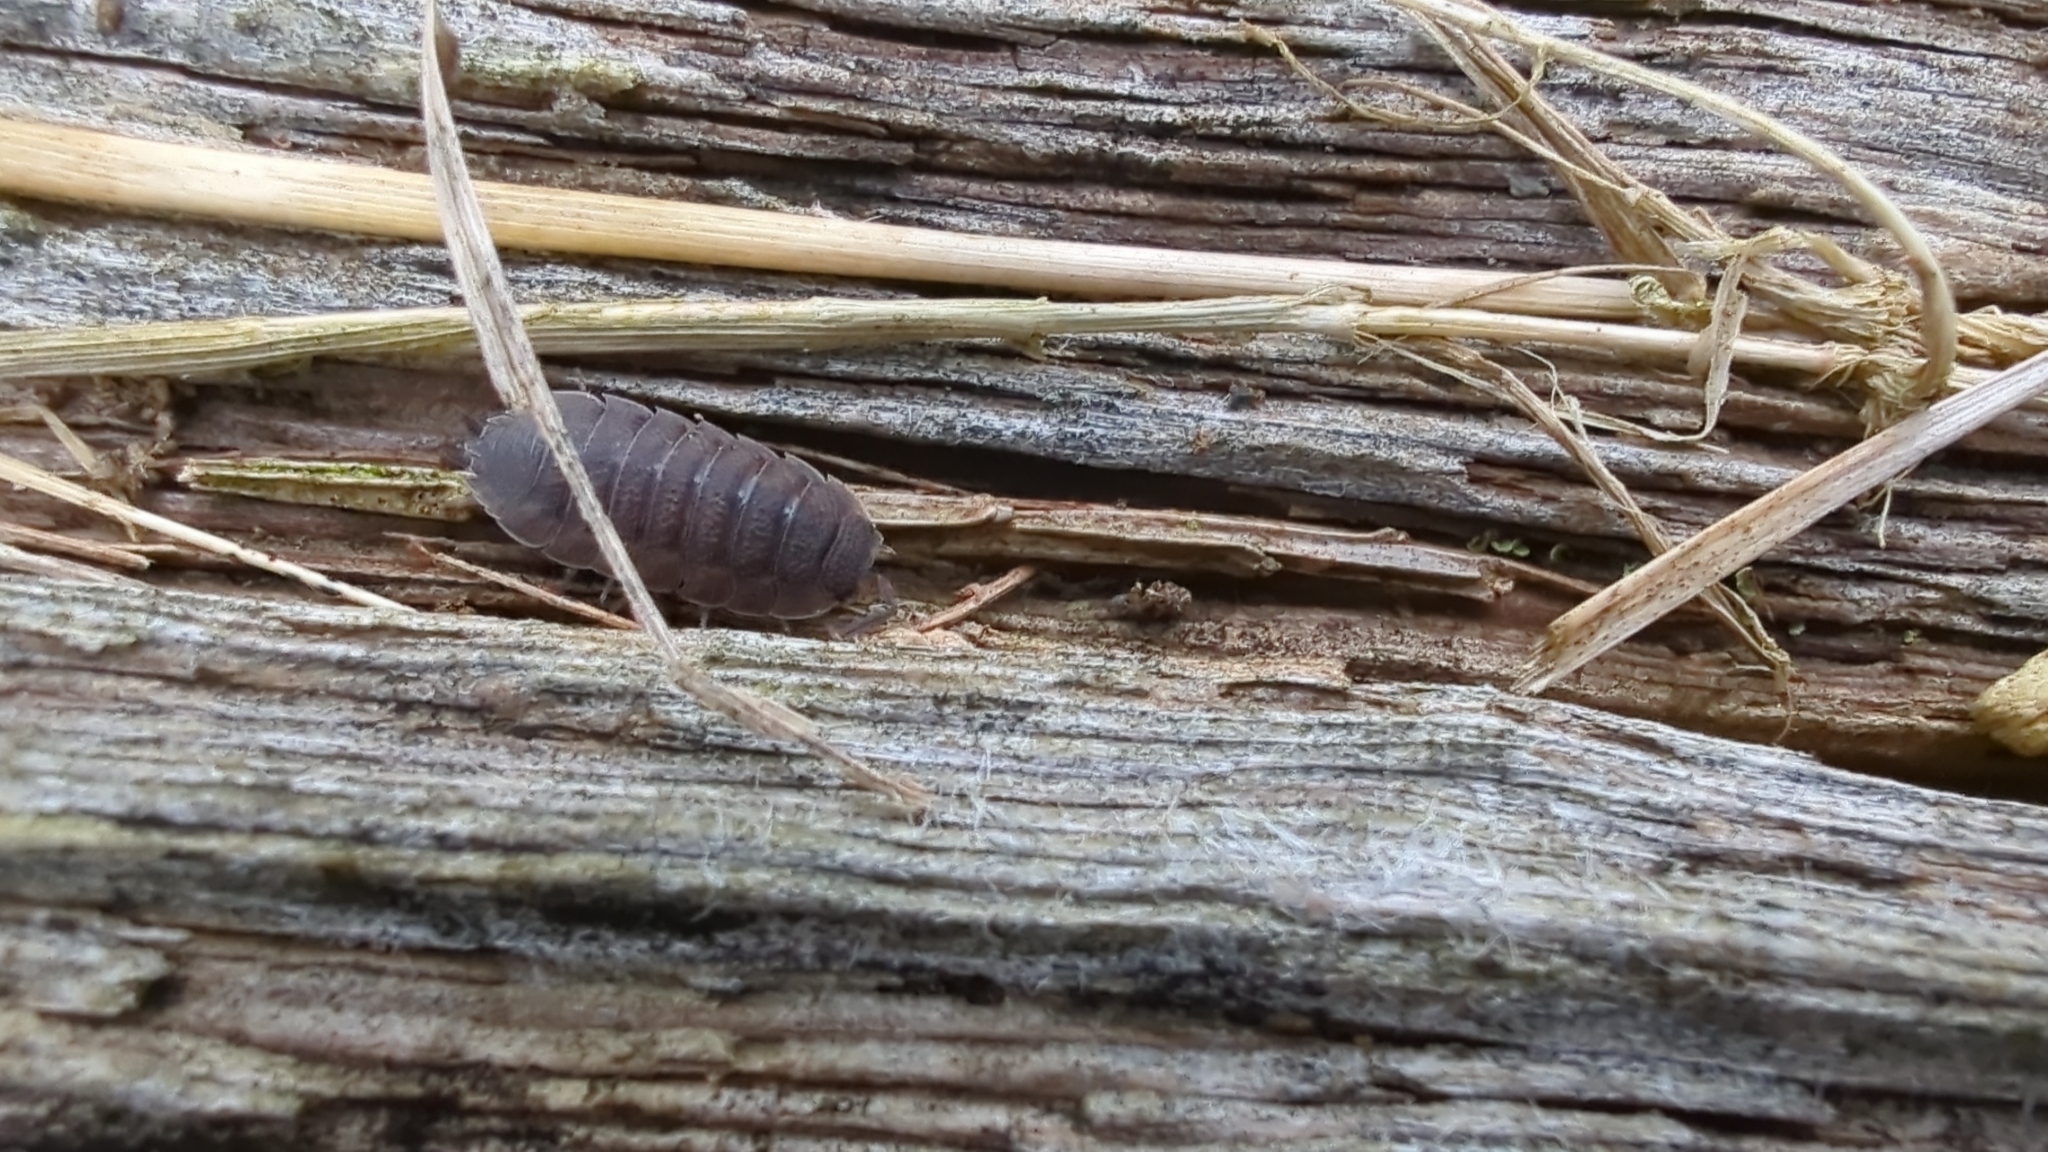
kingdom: Animalia
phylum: Arthropoda
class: Malacostraca
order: Isopoda
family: Porcellionidae
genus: Porcellio
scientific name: Porcellio scaber
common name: Common rough woodlouse
